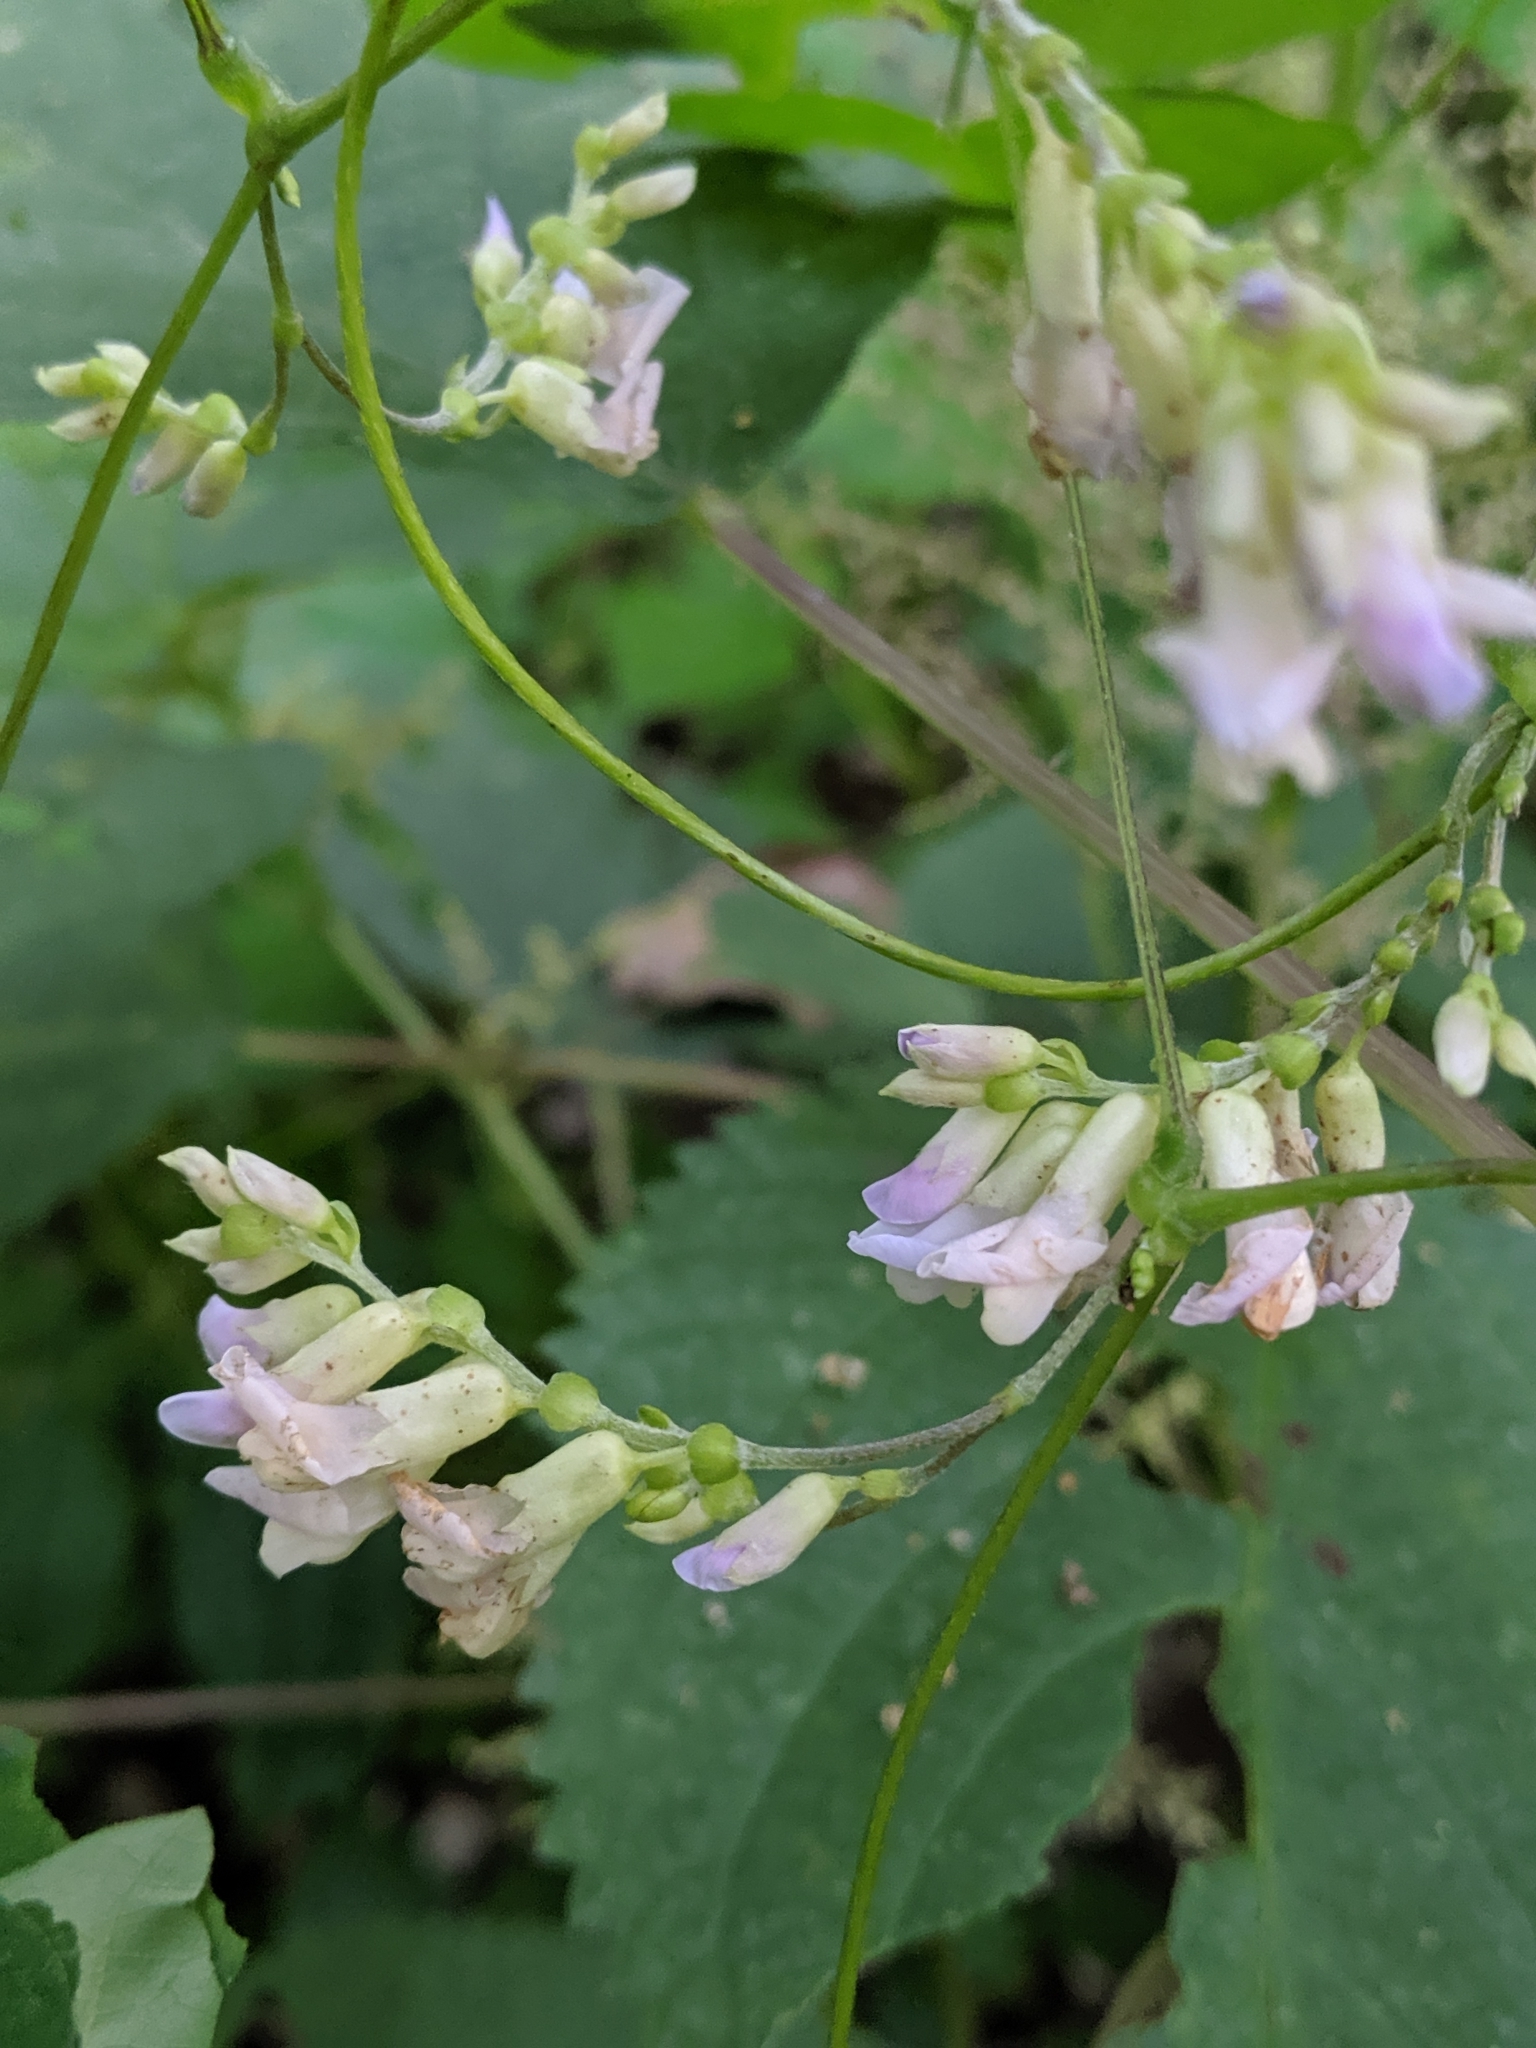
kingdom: Plantae
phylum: Tracheophyta
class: Magnoliopsida
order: Fabales
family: Fabaceae
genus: Amphicarpaea
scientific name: Amphicarpaea bracteata
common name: American hog peanut
